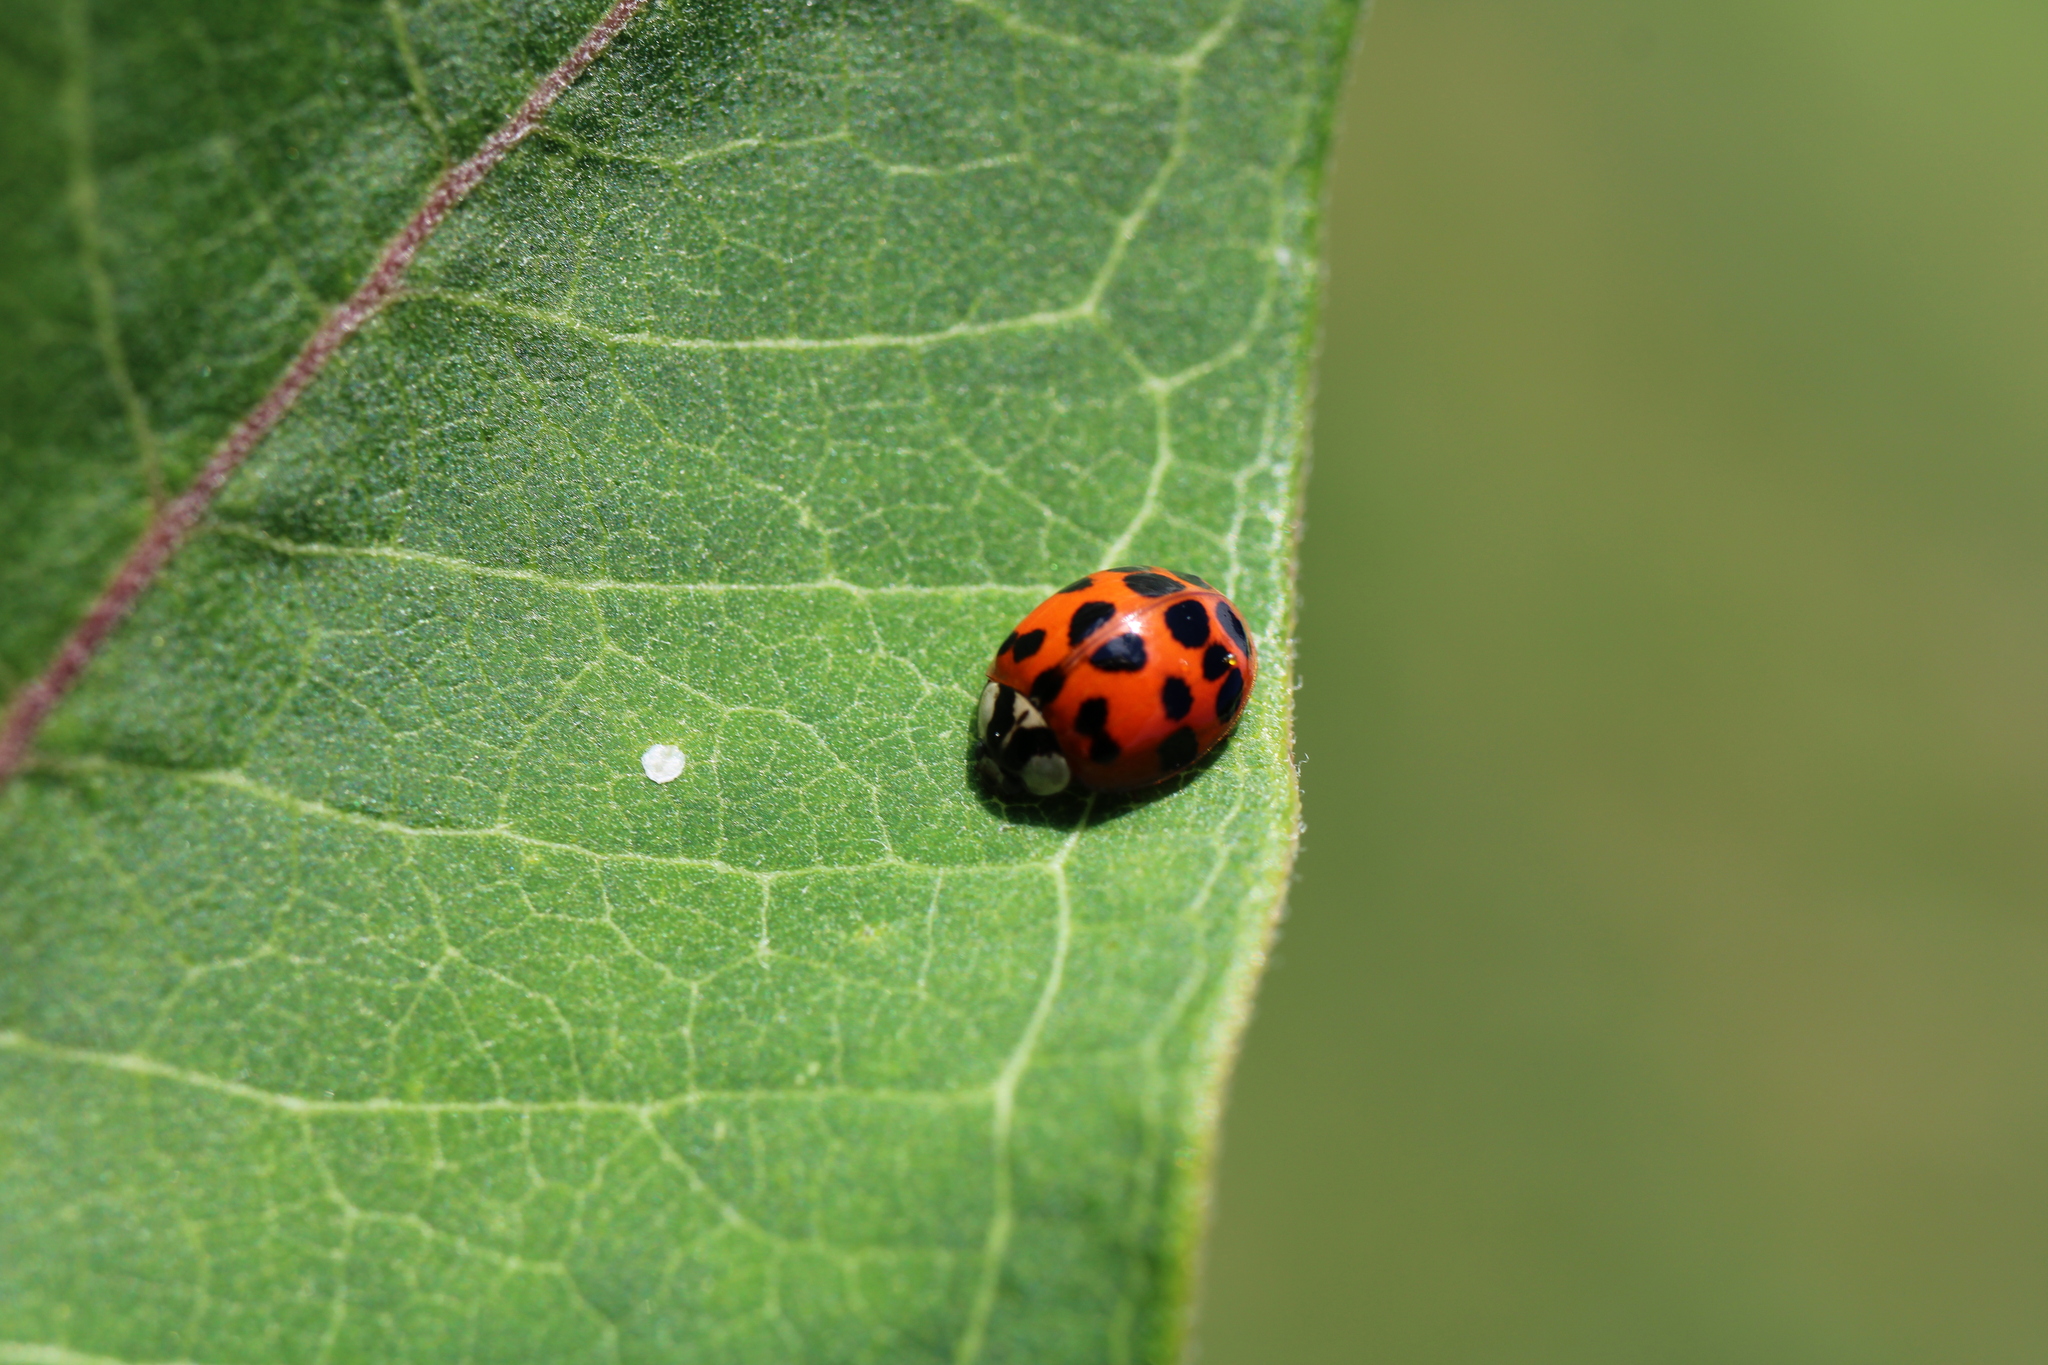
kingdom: Animalia
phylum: Arthropoda
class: Insecta
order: Coleoptera
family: Coccinellidae
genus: Harmonia
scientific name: Harmonia axyridis
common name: Harlequin ladybird
